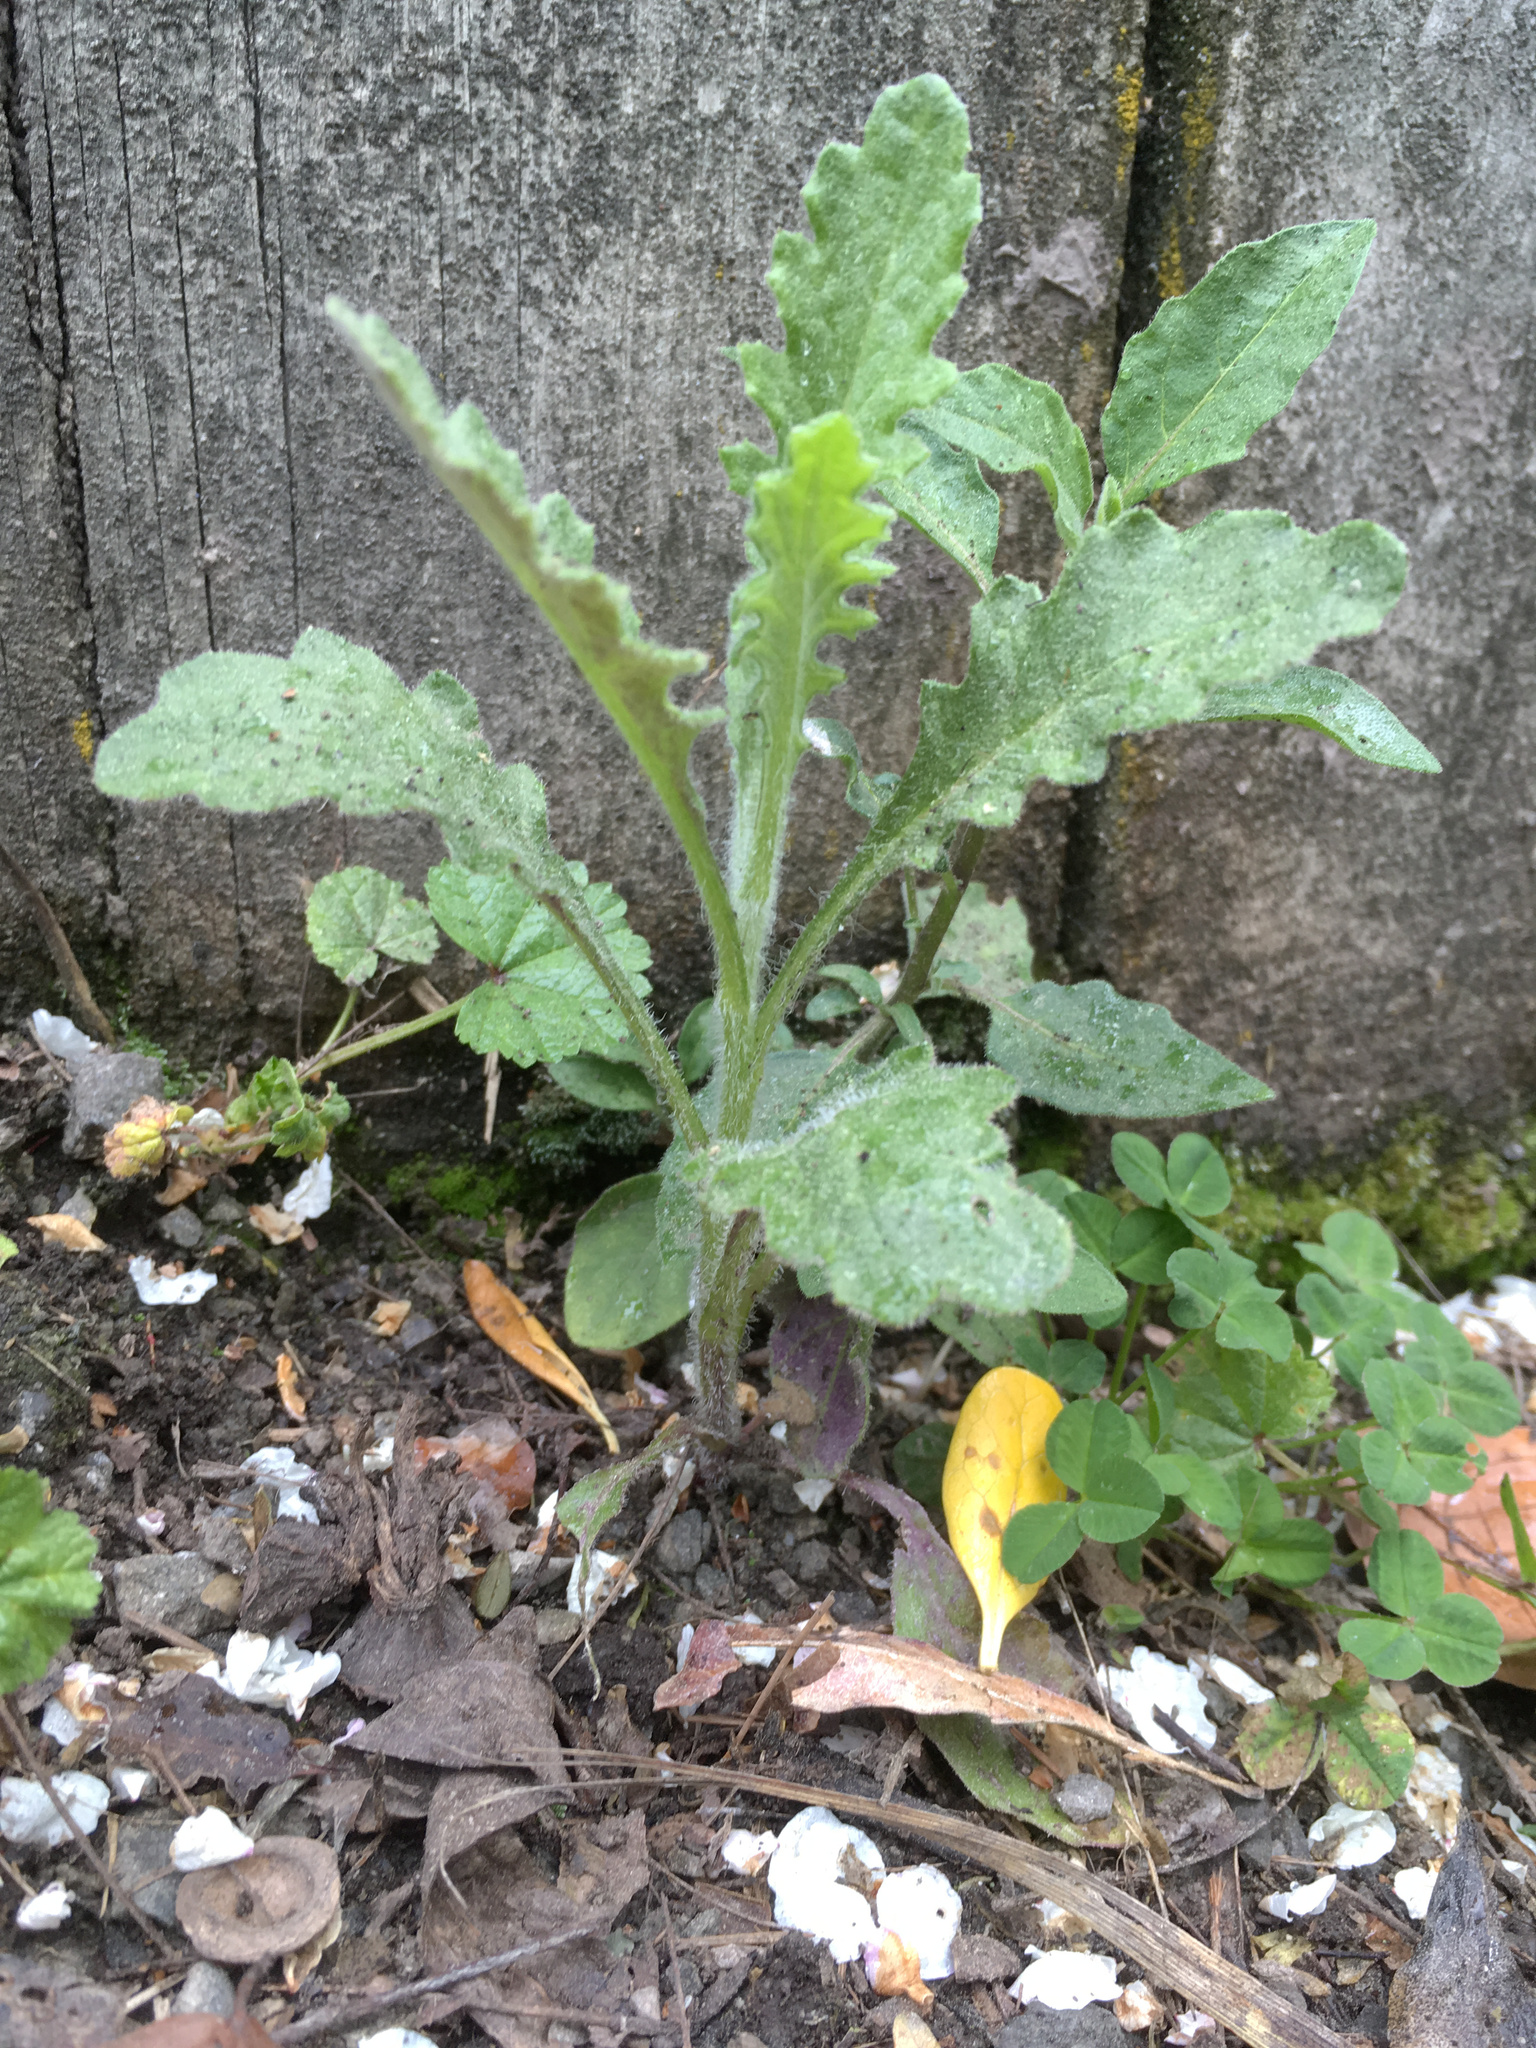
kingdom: Plantae
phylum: Tracheophyta
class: Magnoliopsida
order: Asterales
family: Asteraceae
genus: Senecio
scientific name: Senecio glomeratus
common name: Cutleaf burnweed
